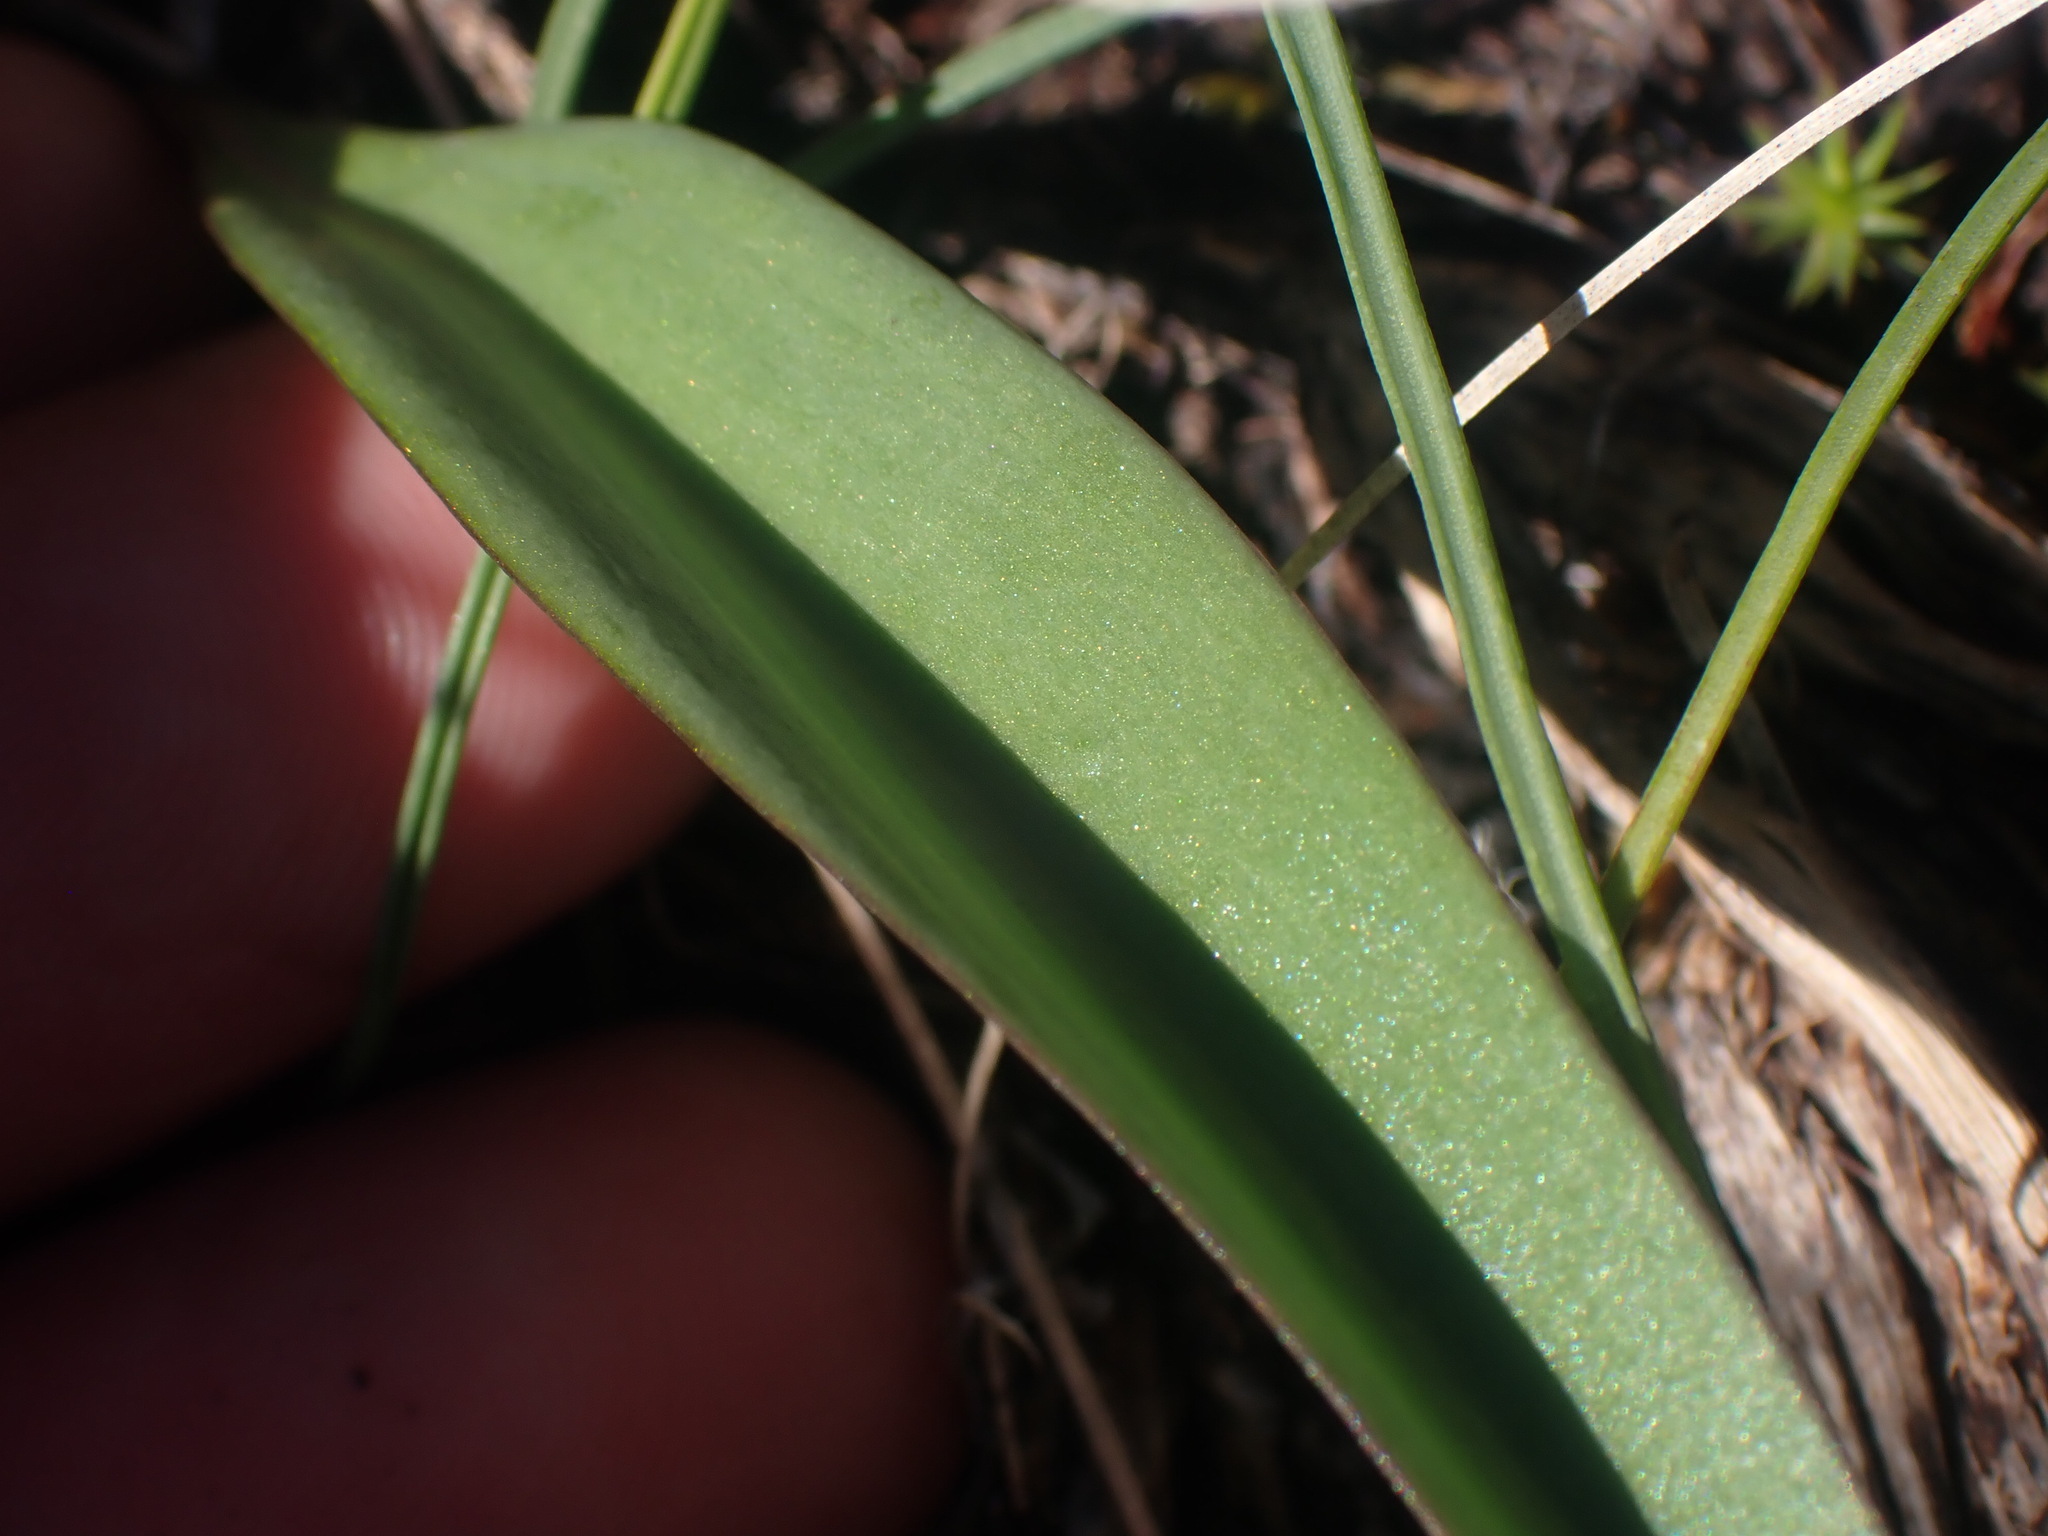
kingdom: Plantae
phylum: Tracheophyta
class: Liliopsida
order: Liliales
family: Liliaceae
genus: Fritillaria
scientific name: Fritillaria affinis
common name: Ojai fritillary
